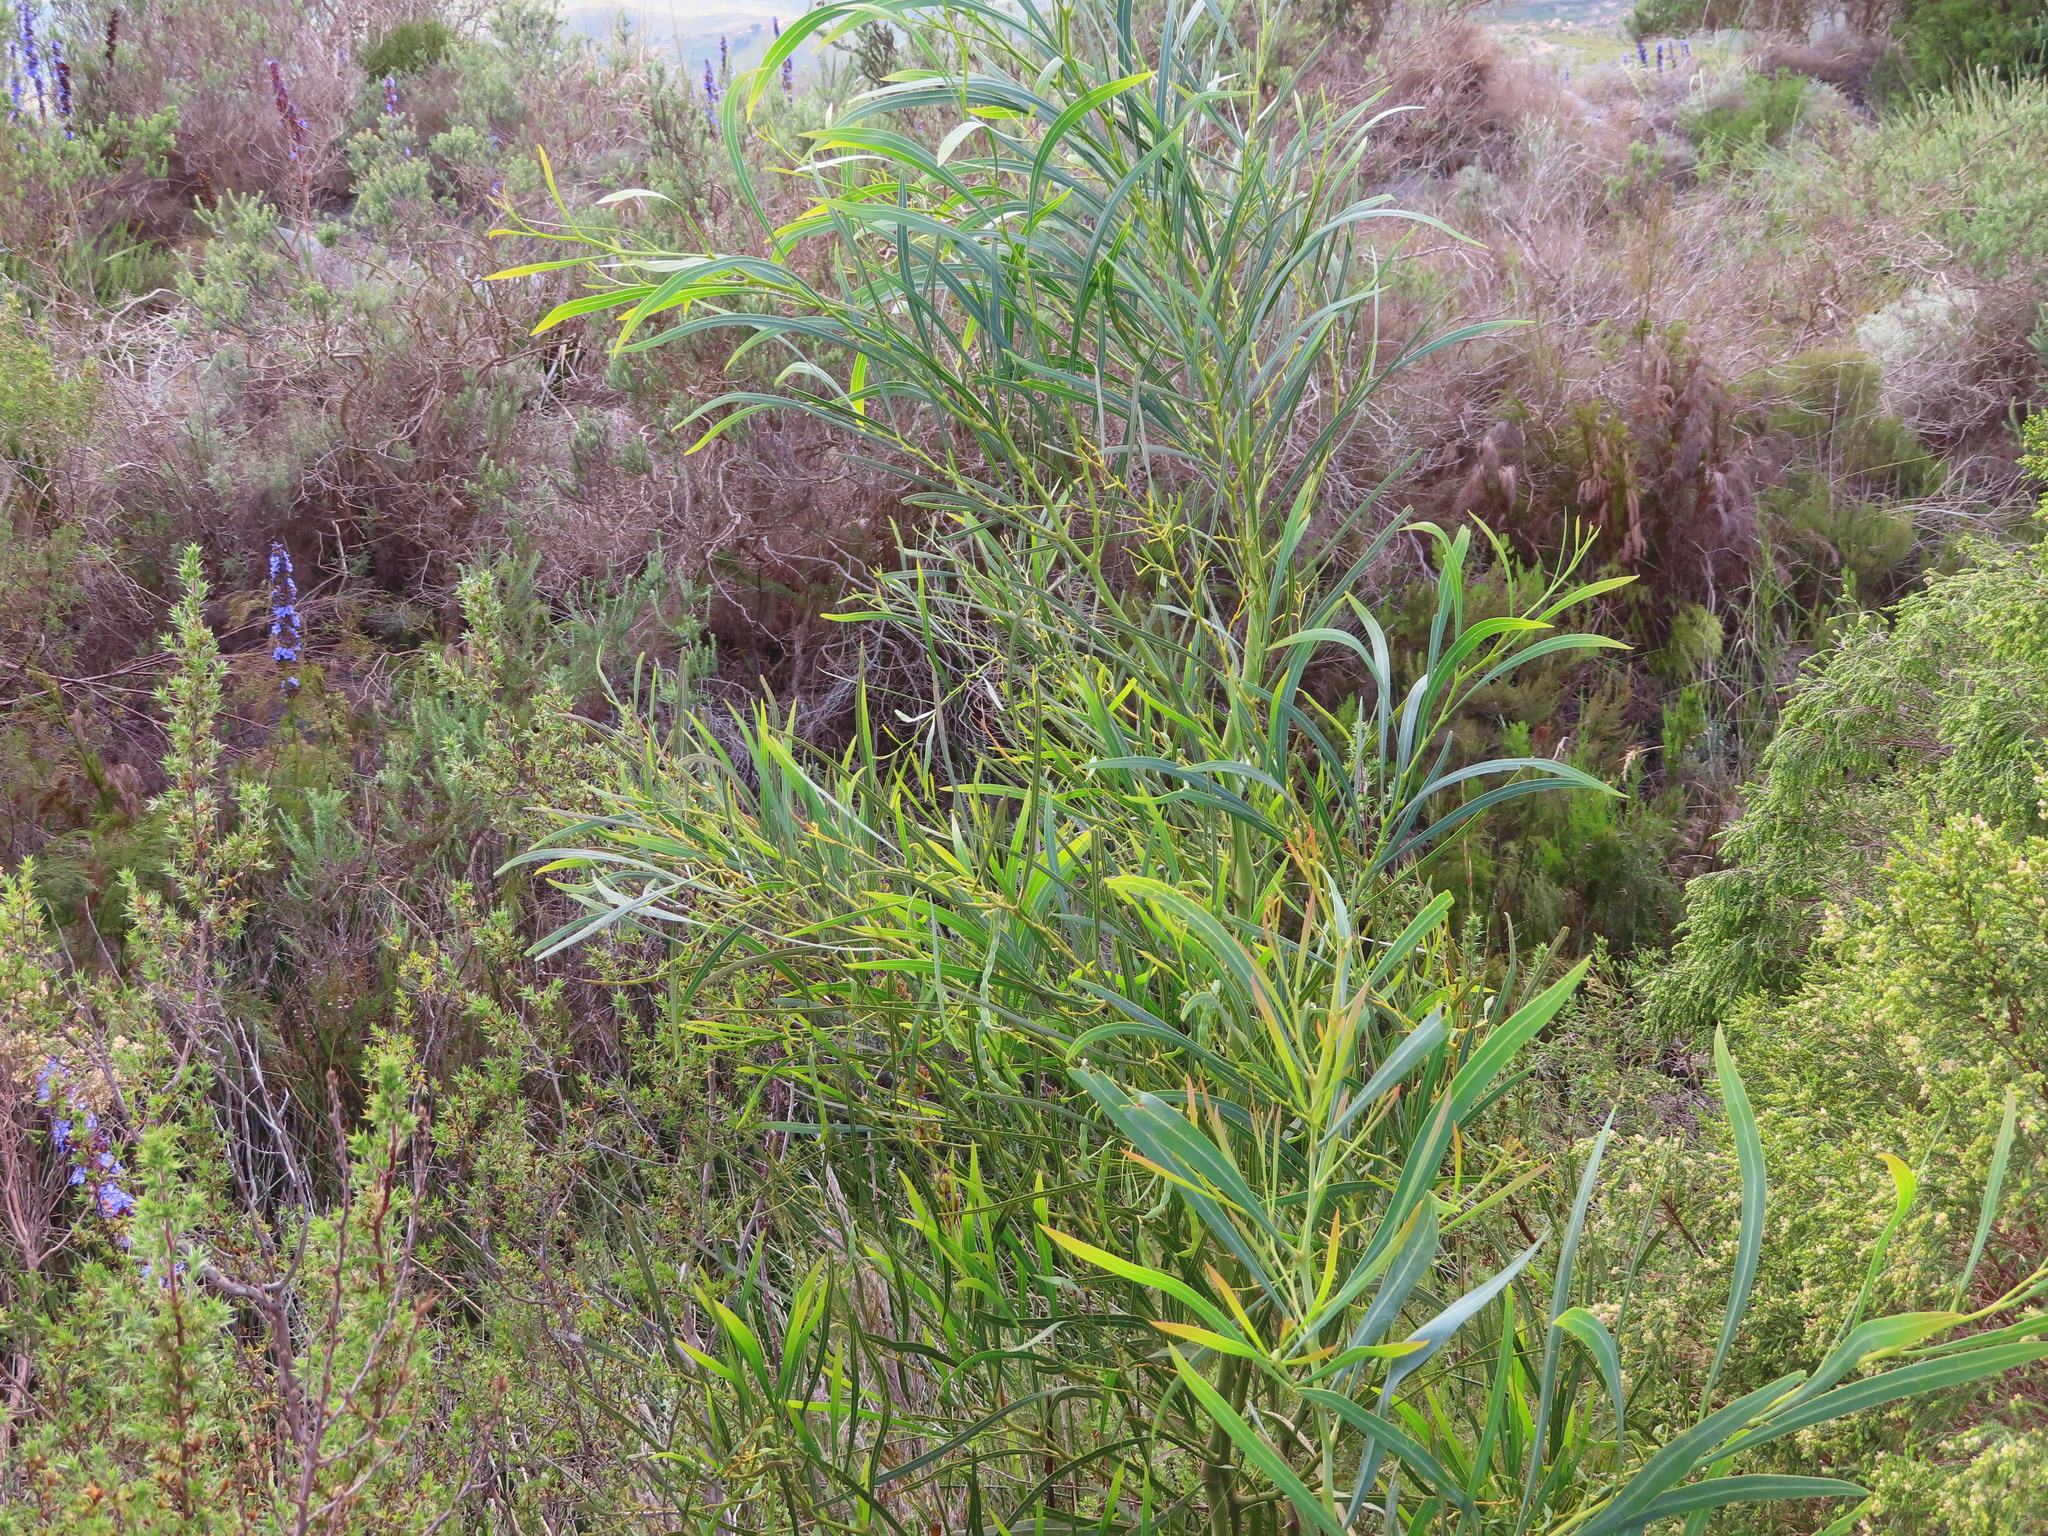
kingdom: Plantae
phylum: Tracheophyta
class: Magnoliopsida
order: Fabales
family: Fabaceae
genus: Acacia
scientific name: Acacia saligna
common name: Orange wattle
